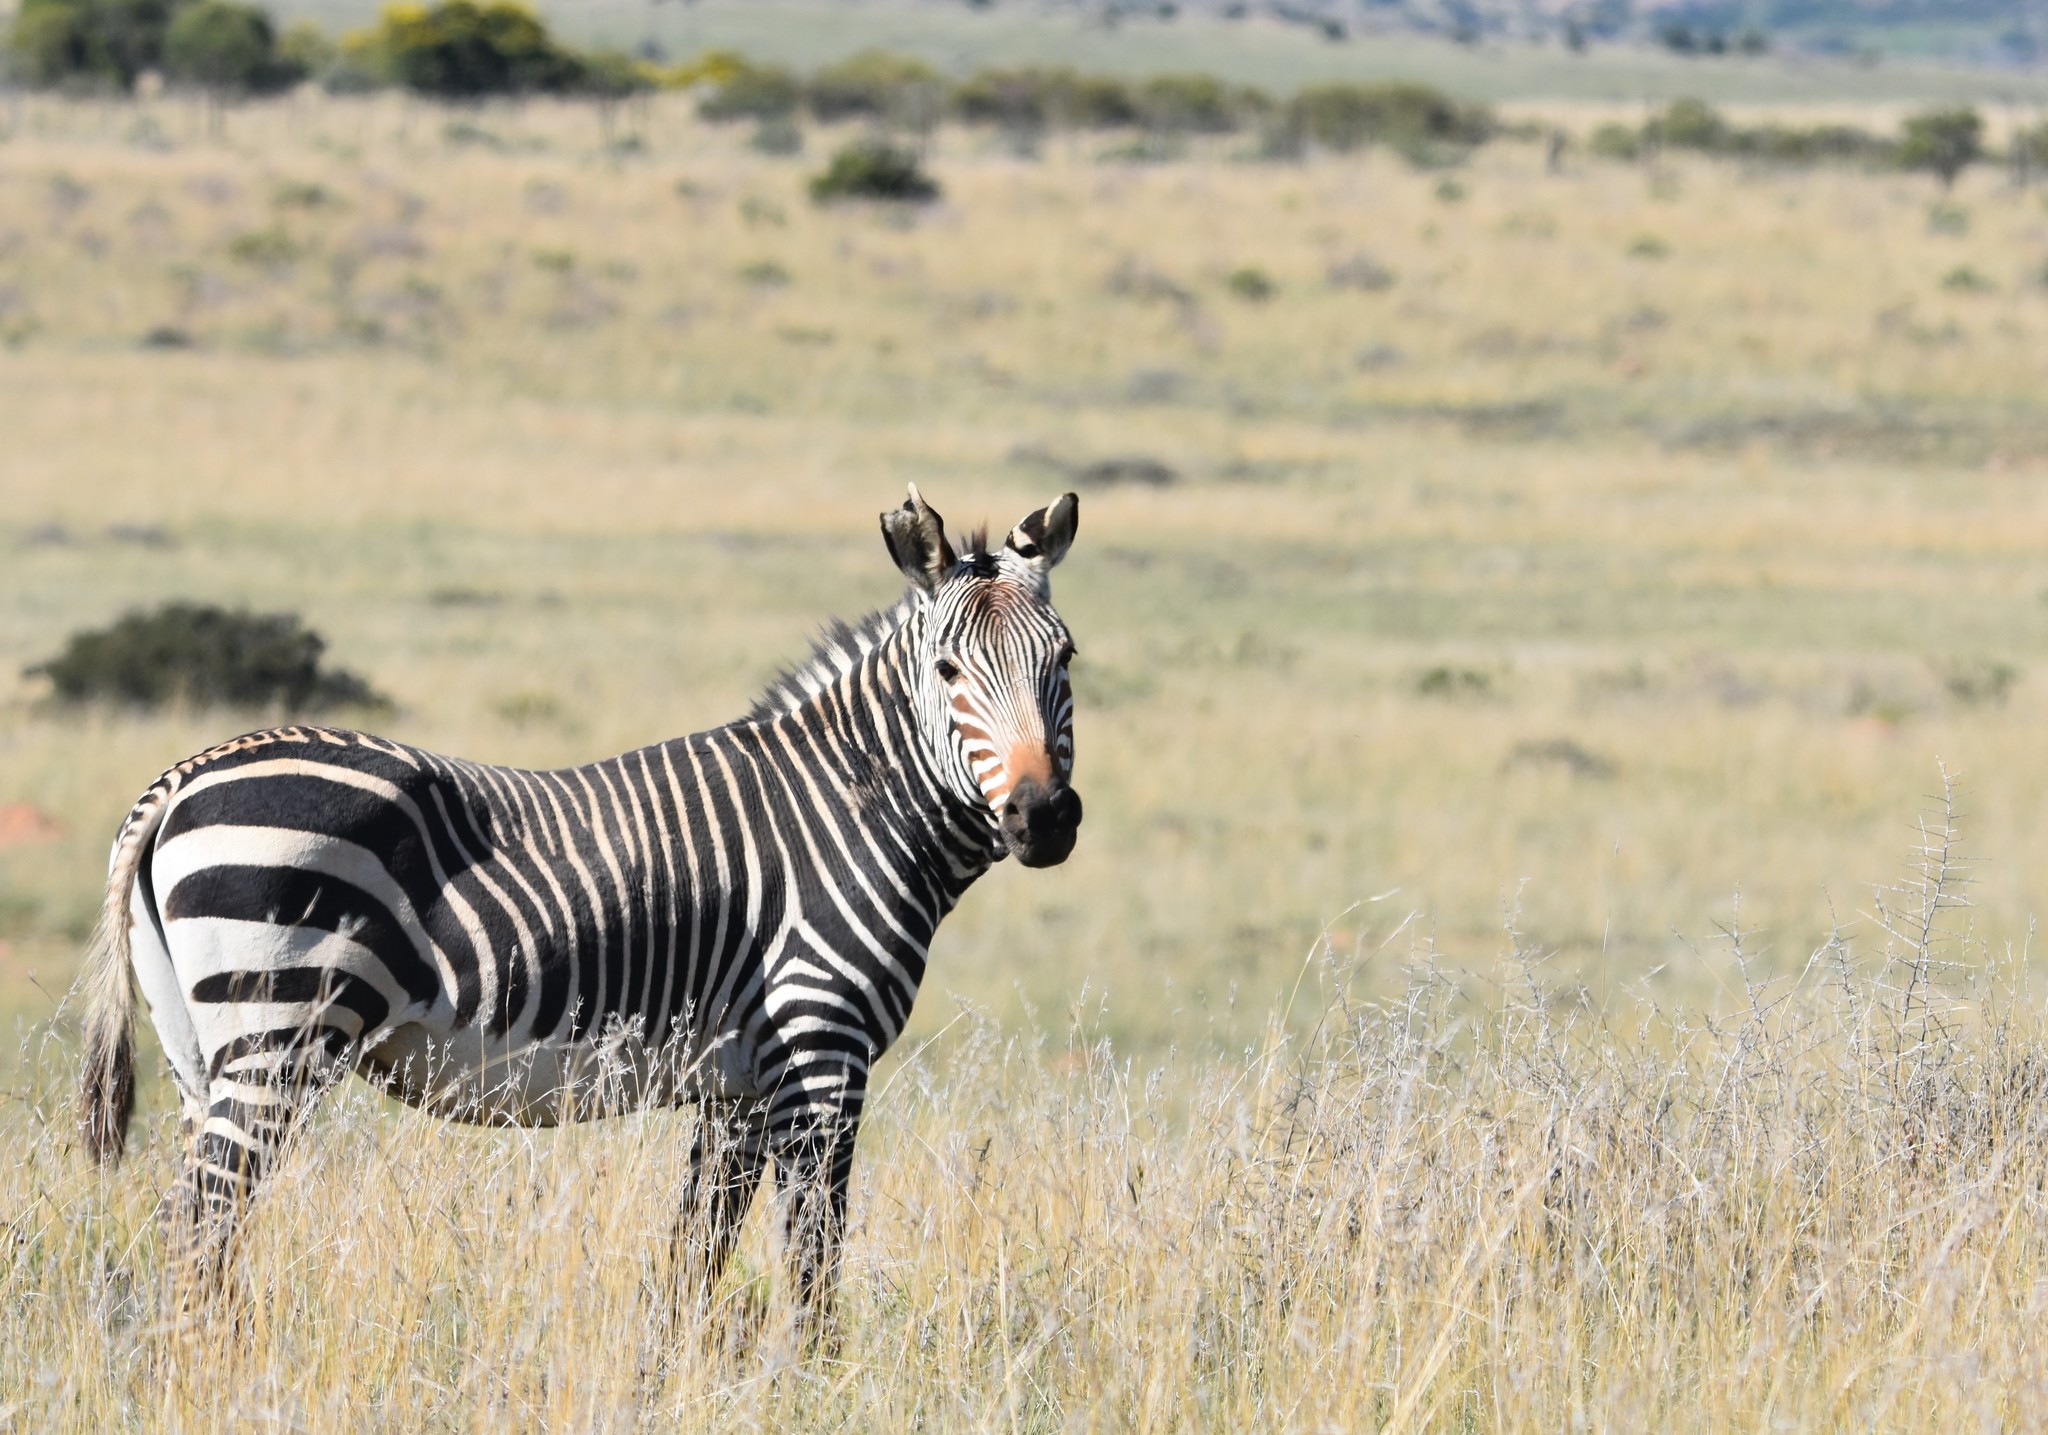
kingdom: Animalia
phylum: Chordata
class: Mammalia
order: Perissodactyla
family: Equidae
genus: Equus
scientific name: Equus zebra
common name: Mountain zebra
